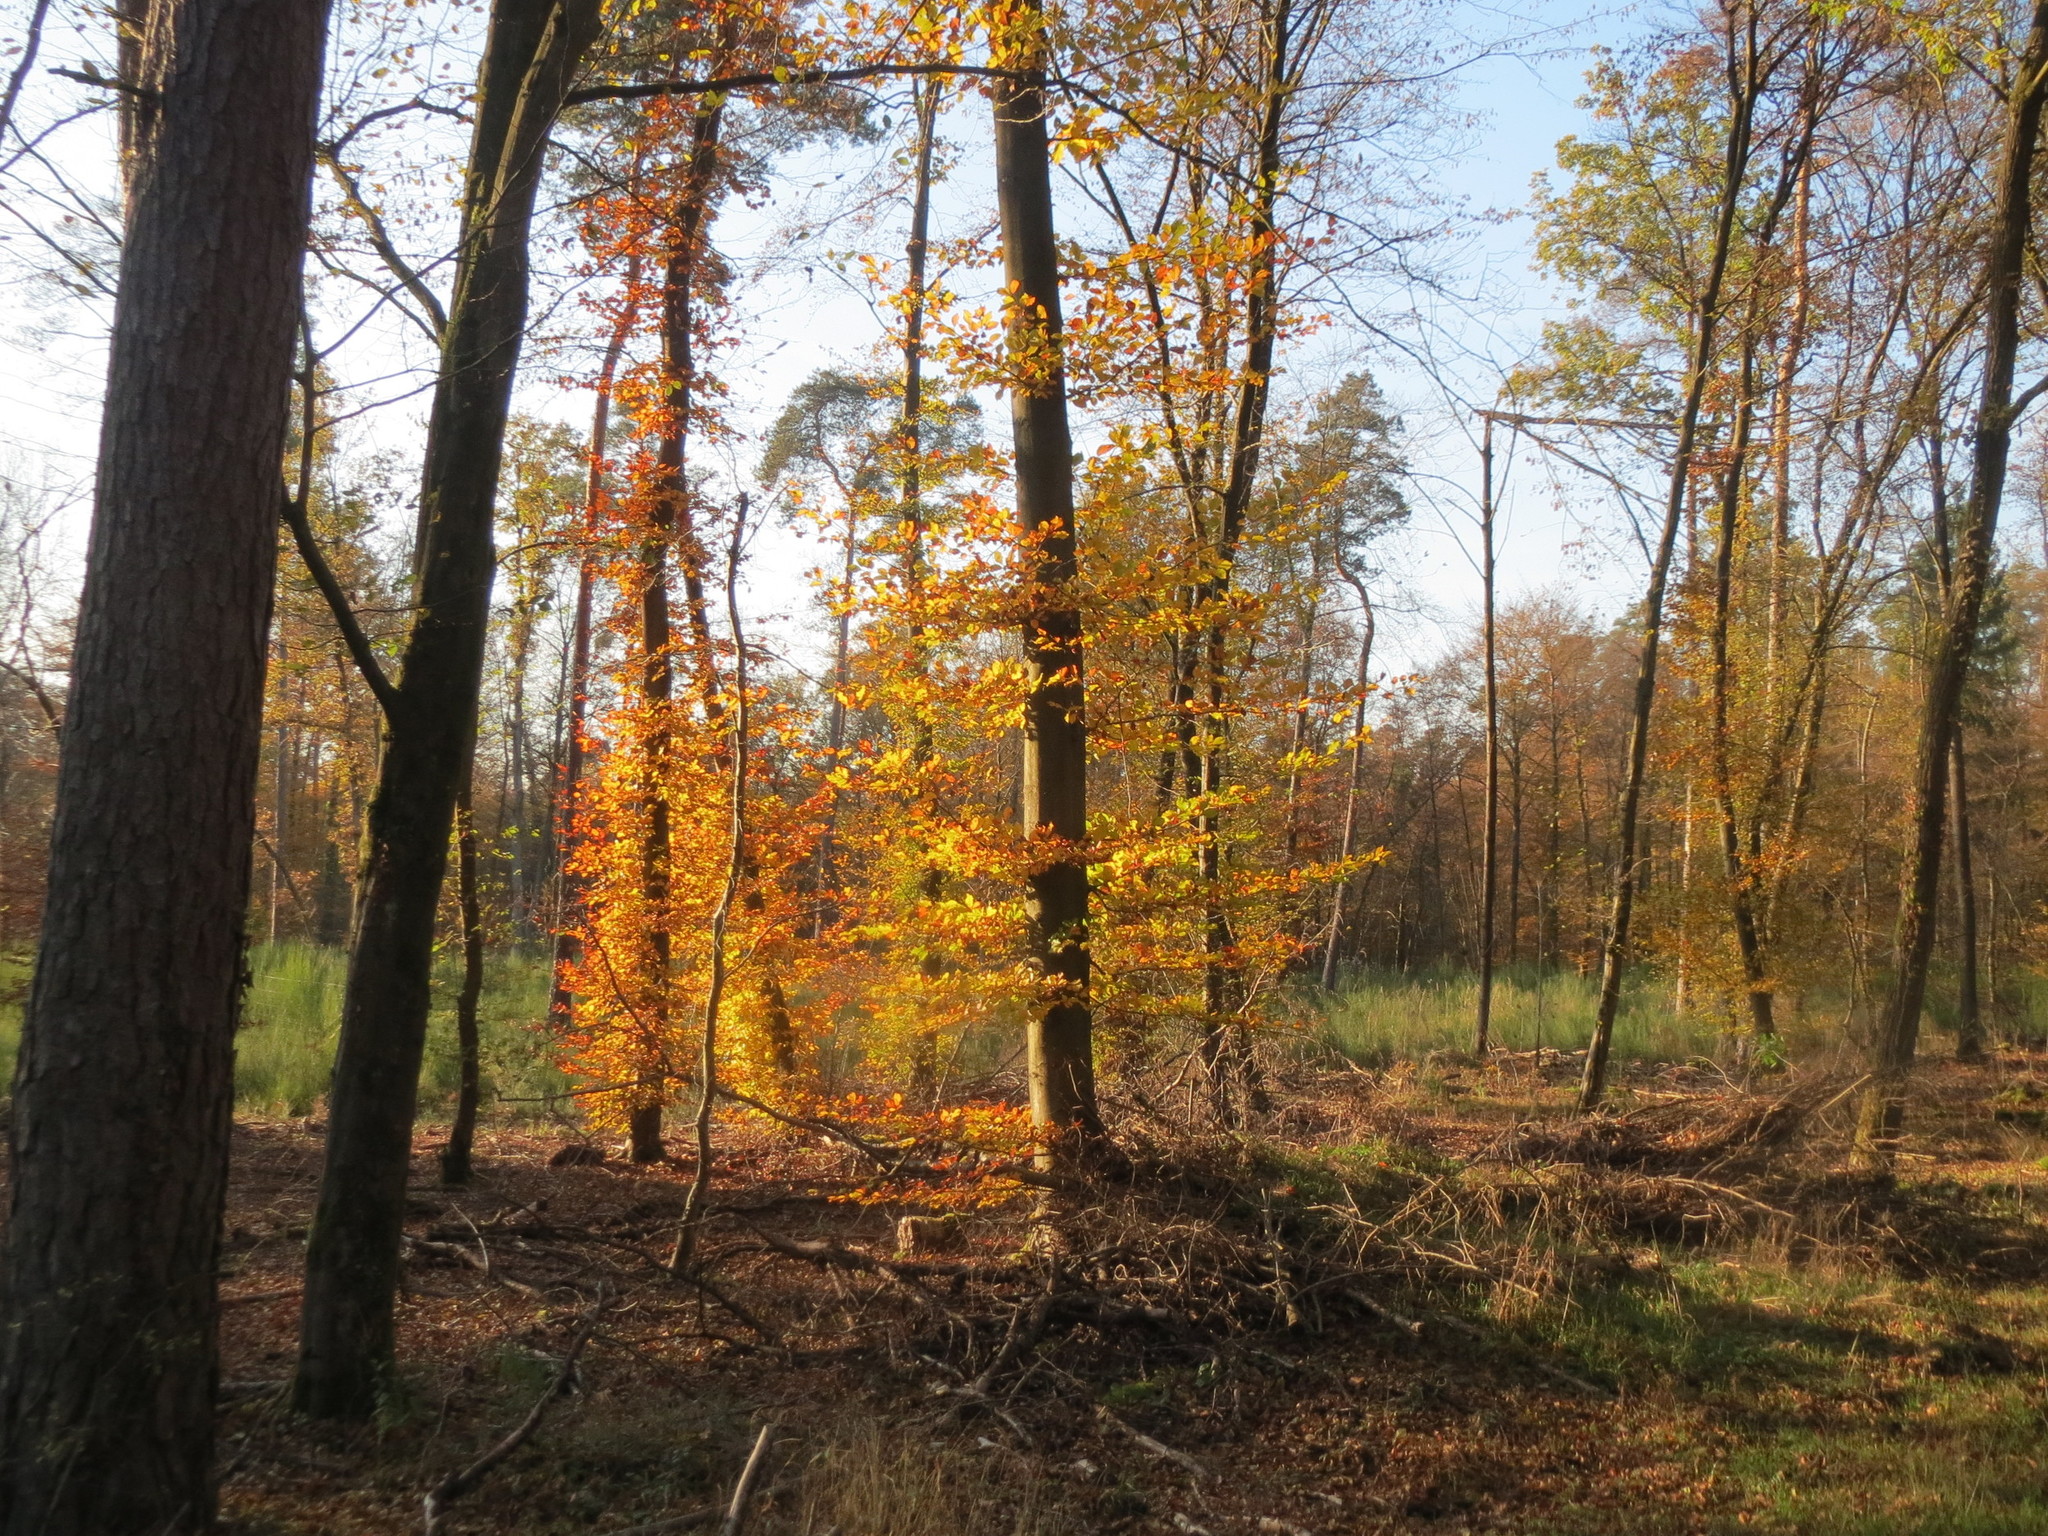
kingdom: Plantae
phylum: Tracheophyta
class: Magnoliopsida
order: Fagales
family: Fagaceae
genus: Fagus
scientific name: Fagus sylvatica
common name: Beech
